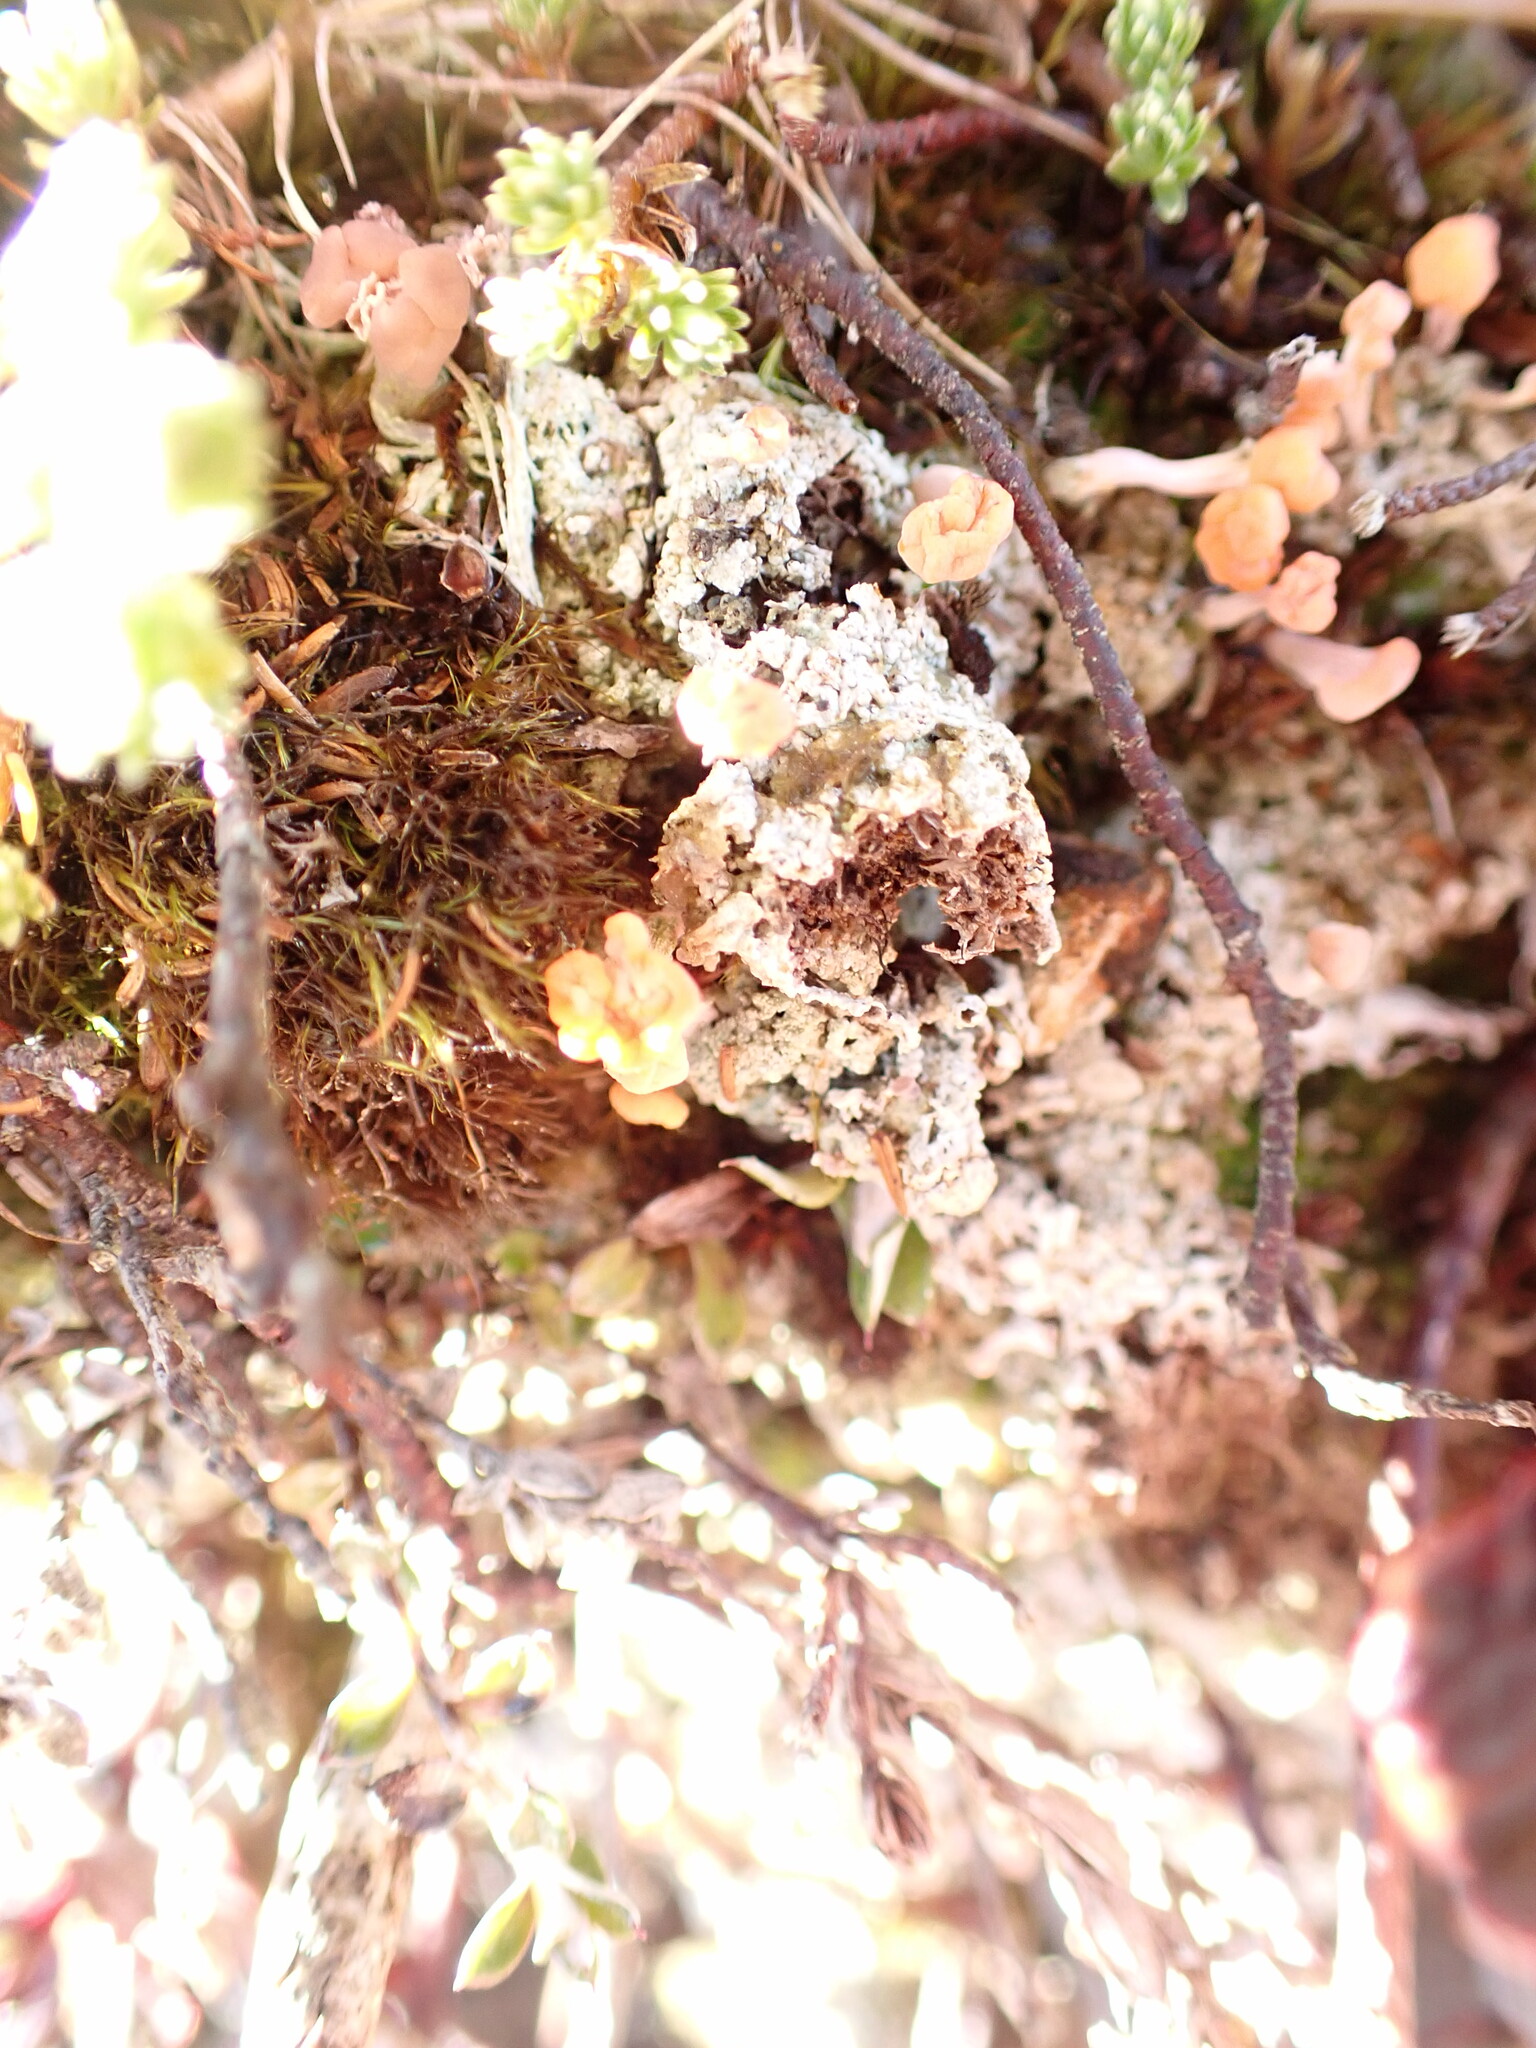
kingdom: Fungi
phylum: Ascomycota
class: Lecanoromycetes
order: Pertusariales
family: Icmadophilaceae
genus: Dibaeis
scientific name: Dibaeis arcuata
